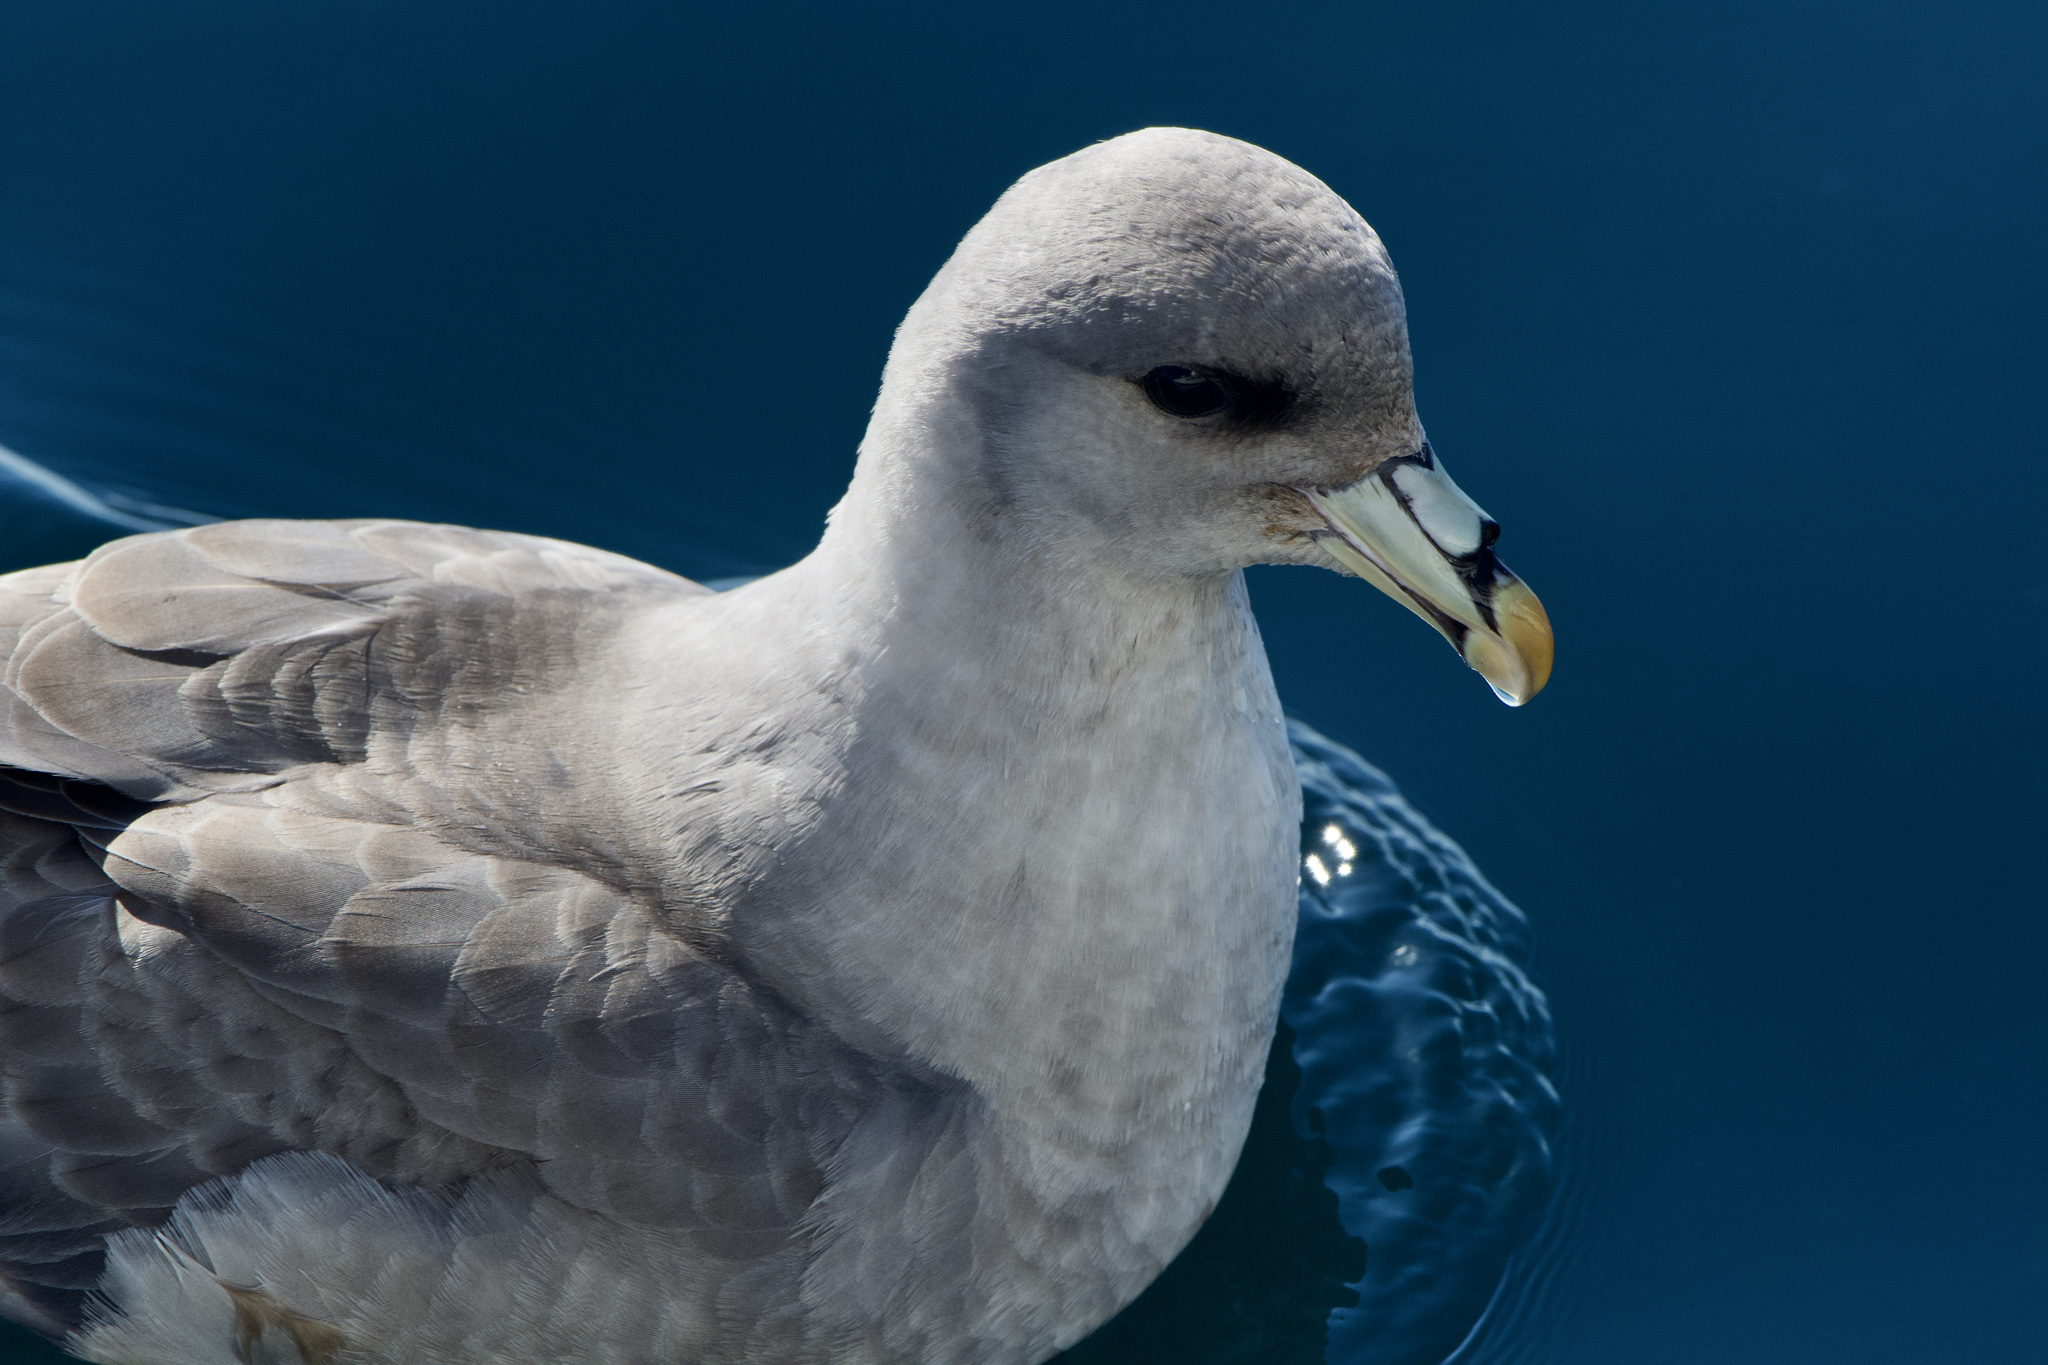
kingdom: Animalia
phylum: Chordata
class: Aves
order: Procellariiformes
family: Procellariidae
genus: Fulmarus
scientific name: Fulmarus glacialis
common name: Northern fulmar
